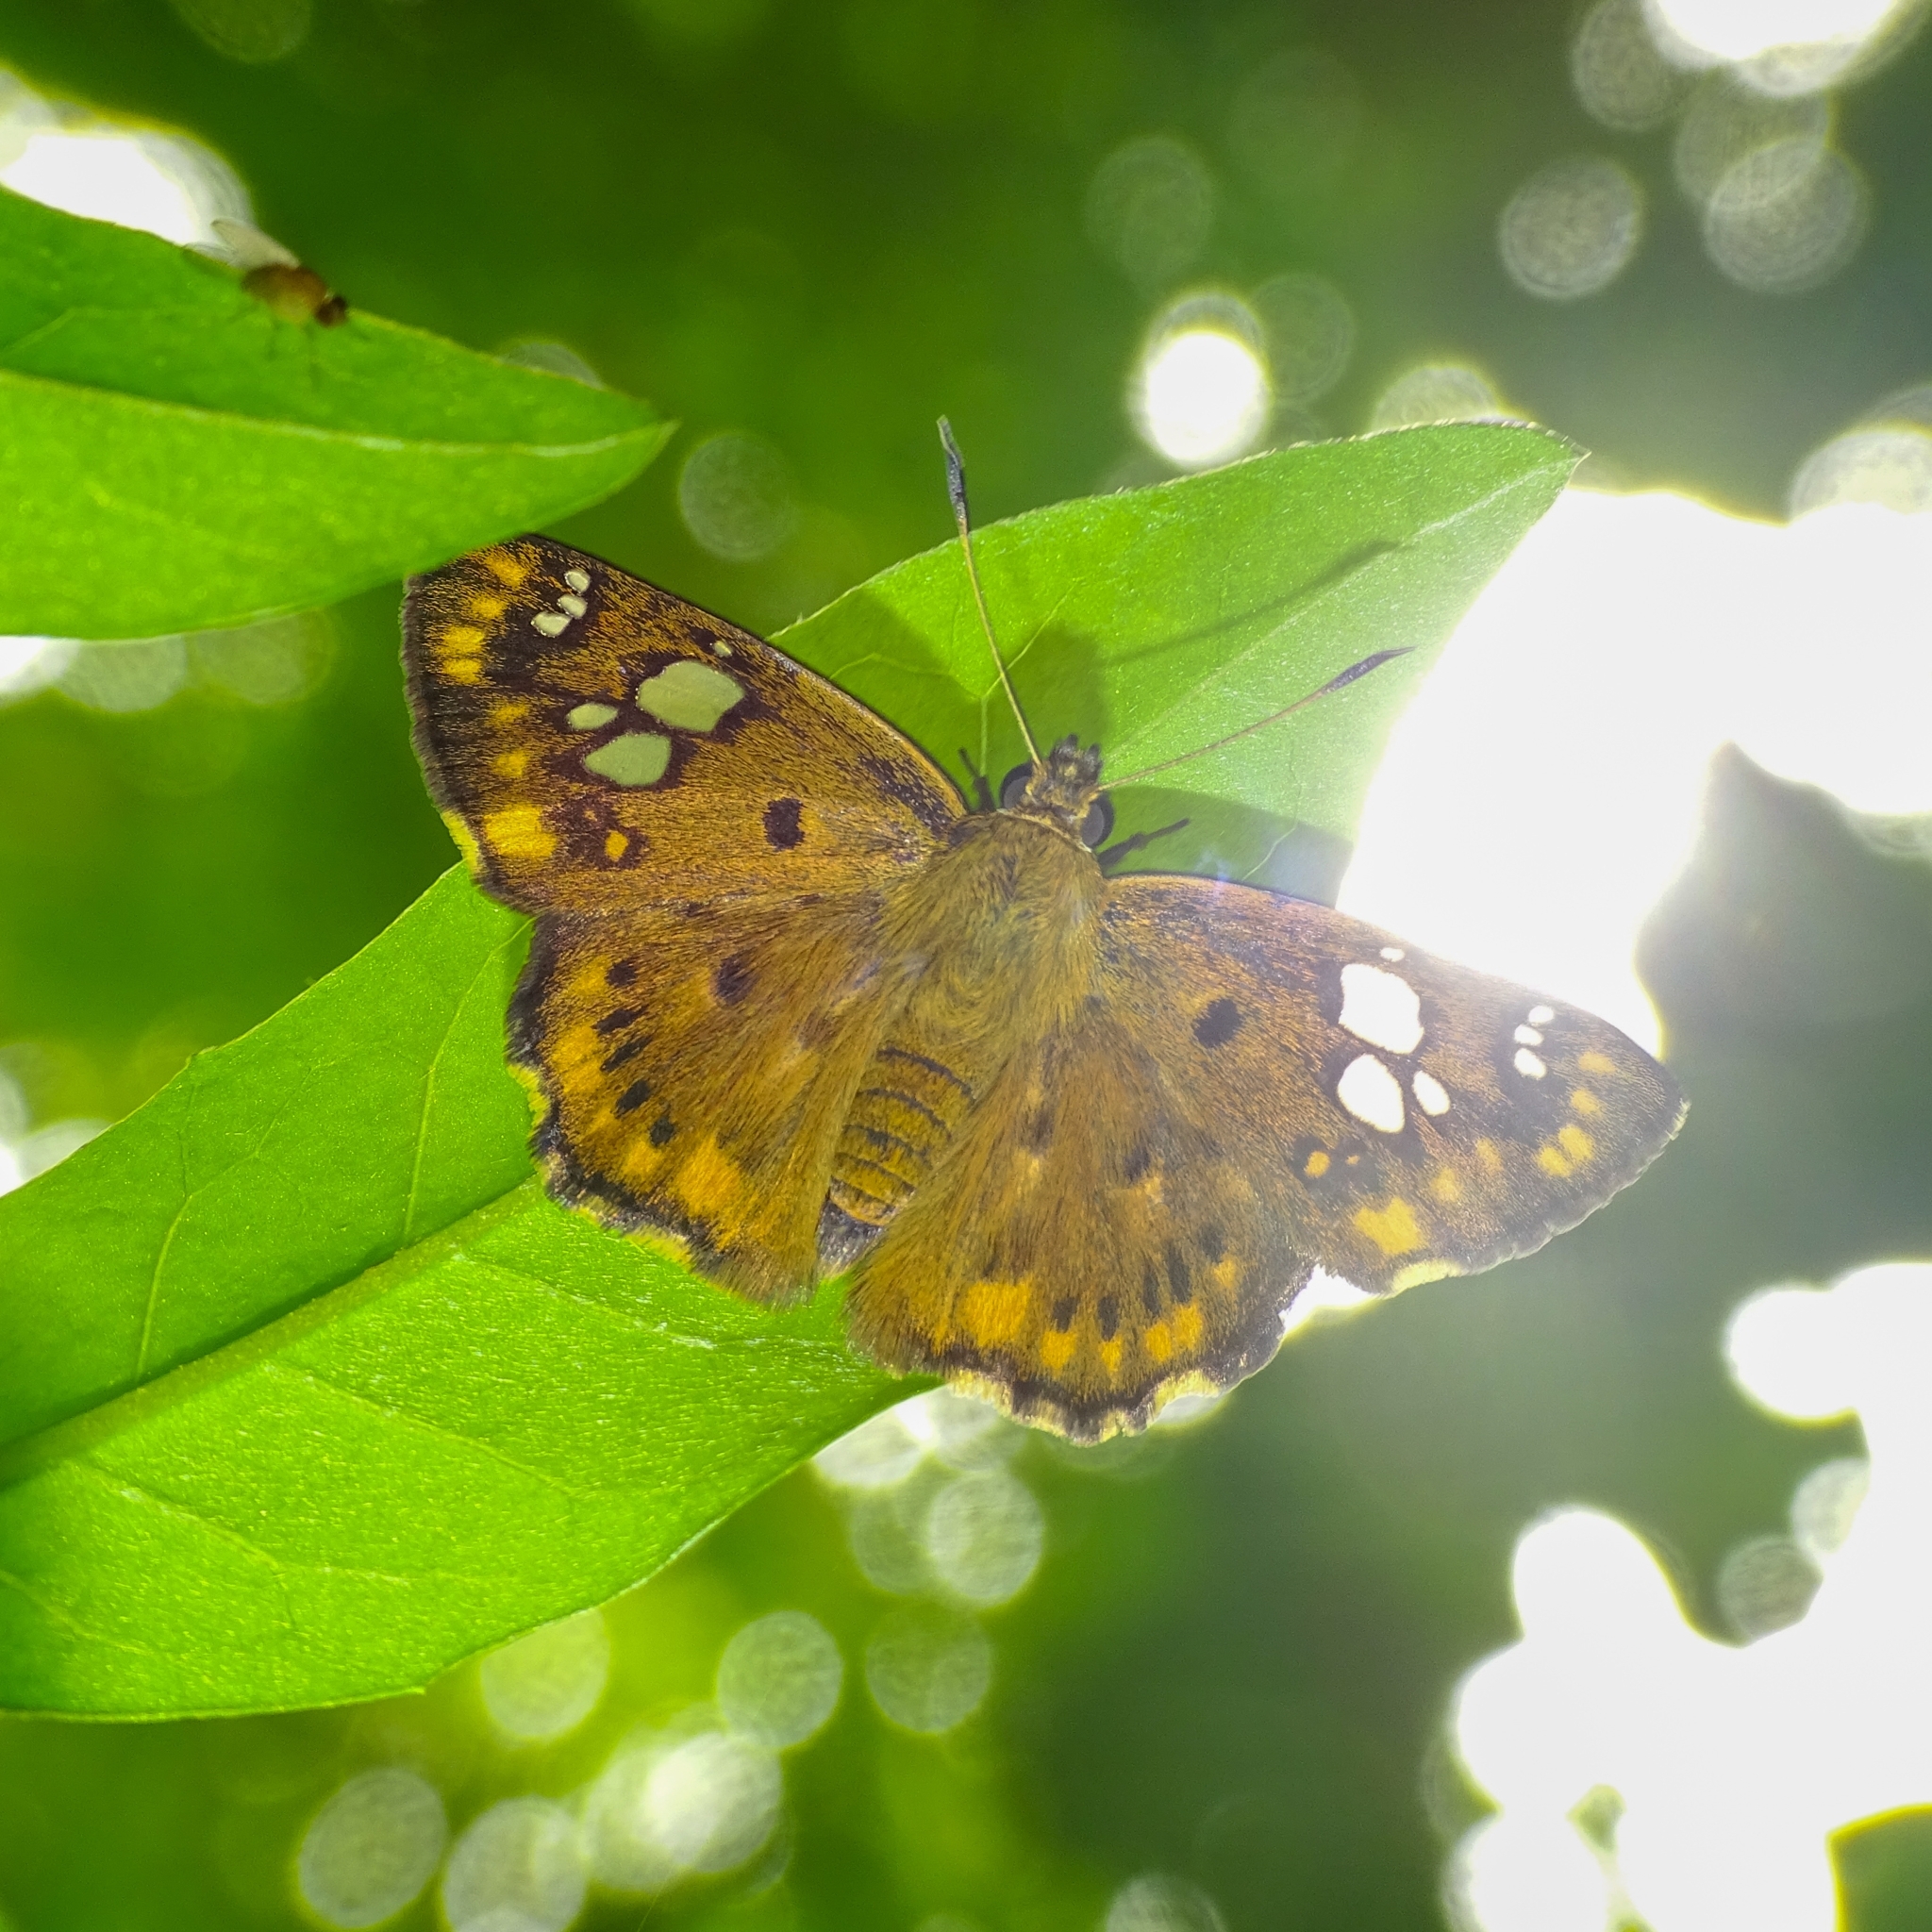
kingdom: Animalia
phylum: Arthropoda
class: Insecta
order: Lepidoptera
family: Hesperiidae
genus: Coladenia
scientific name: Coladenia
